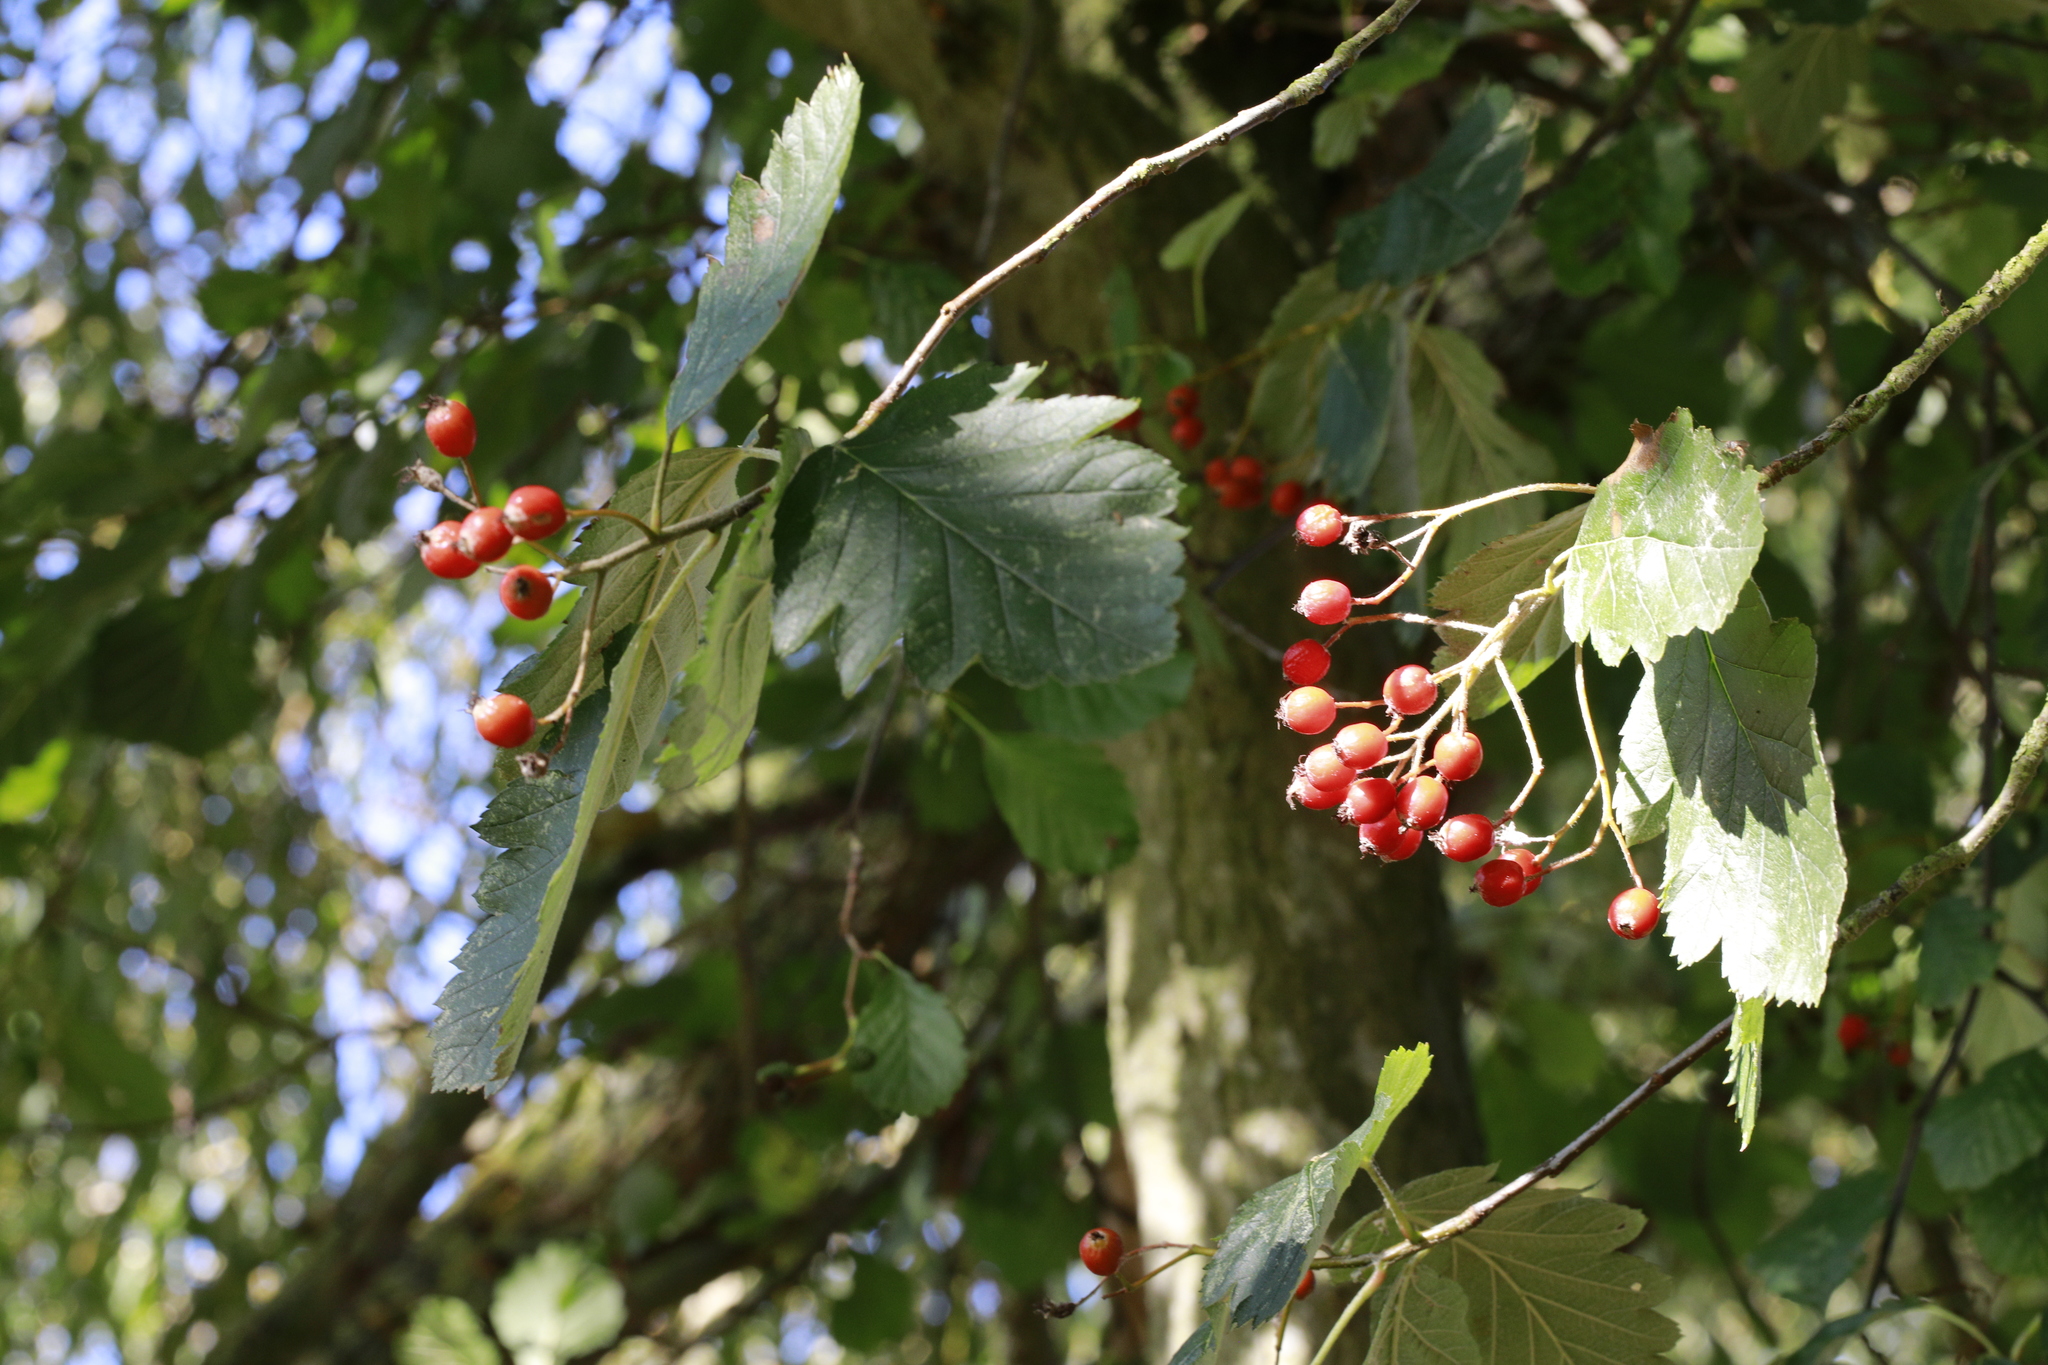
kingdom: Plantae
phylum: Tracheophyta
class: Magnoliopsida
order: Rosales
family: Rosaceae
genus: Scandosorbus
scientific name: Scandosorbus intermedia
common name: Swedish whitebeam
